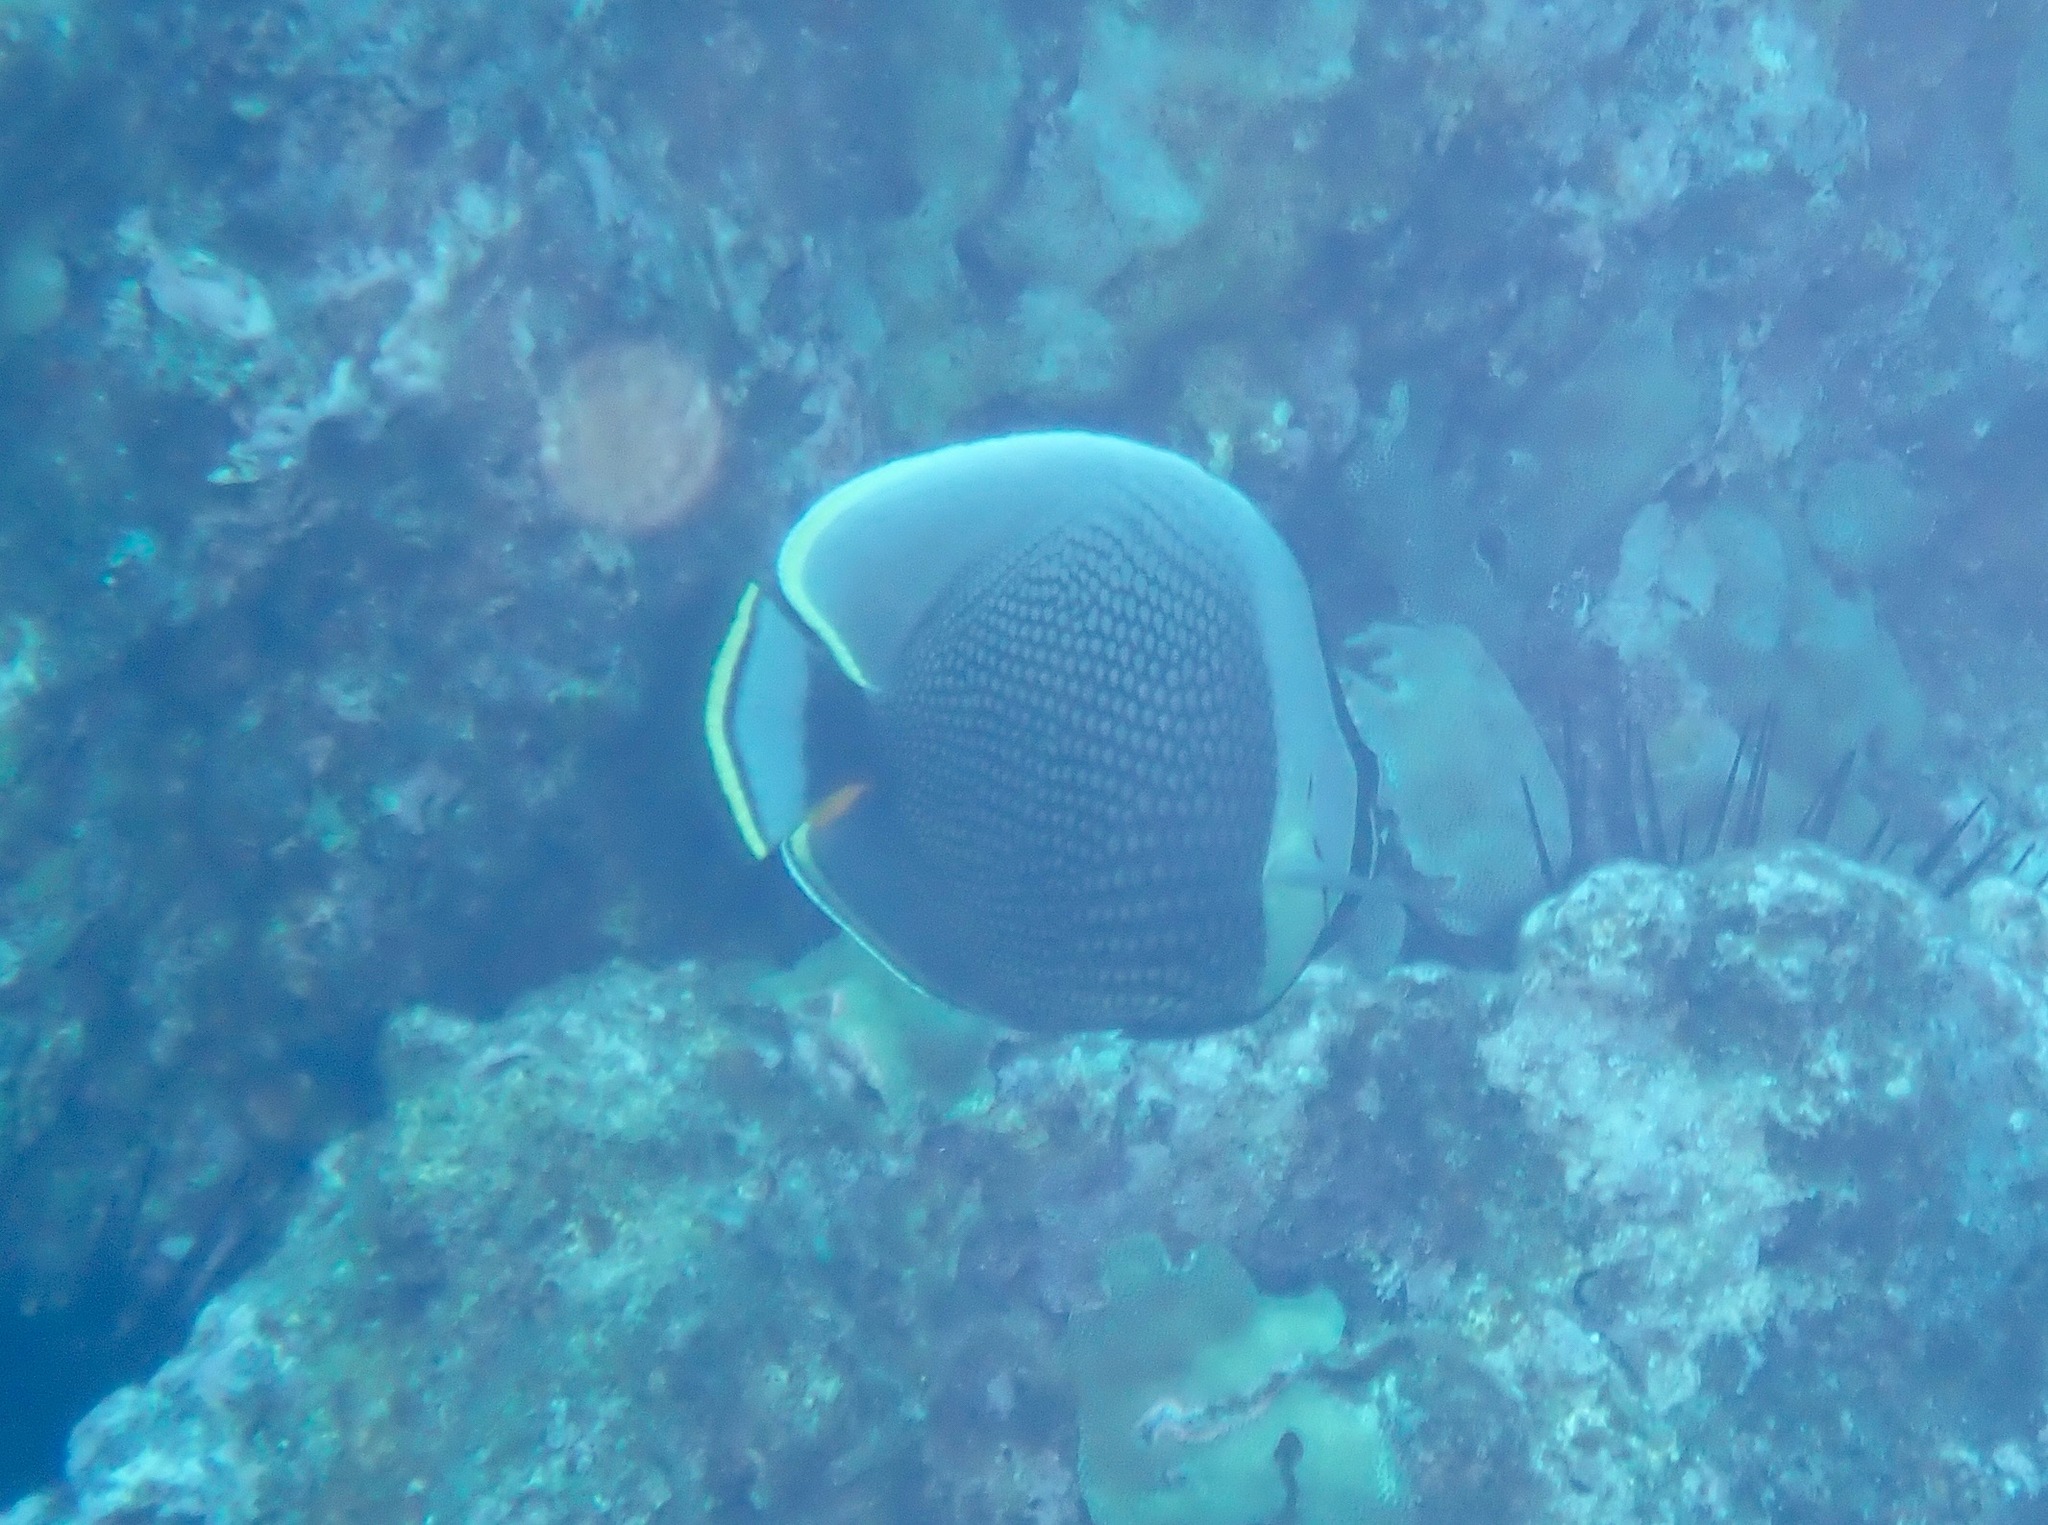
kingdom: Animalia
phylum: Chordata
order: Perciformes
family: Chaetodontidae
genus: Chaetodon
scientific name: Chaetodon reticulatus
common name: Reticulated butterflyfish
